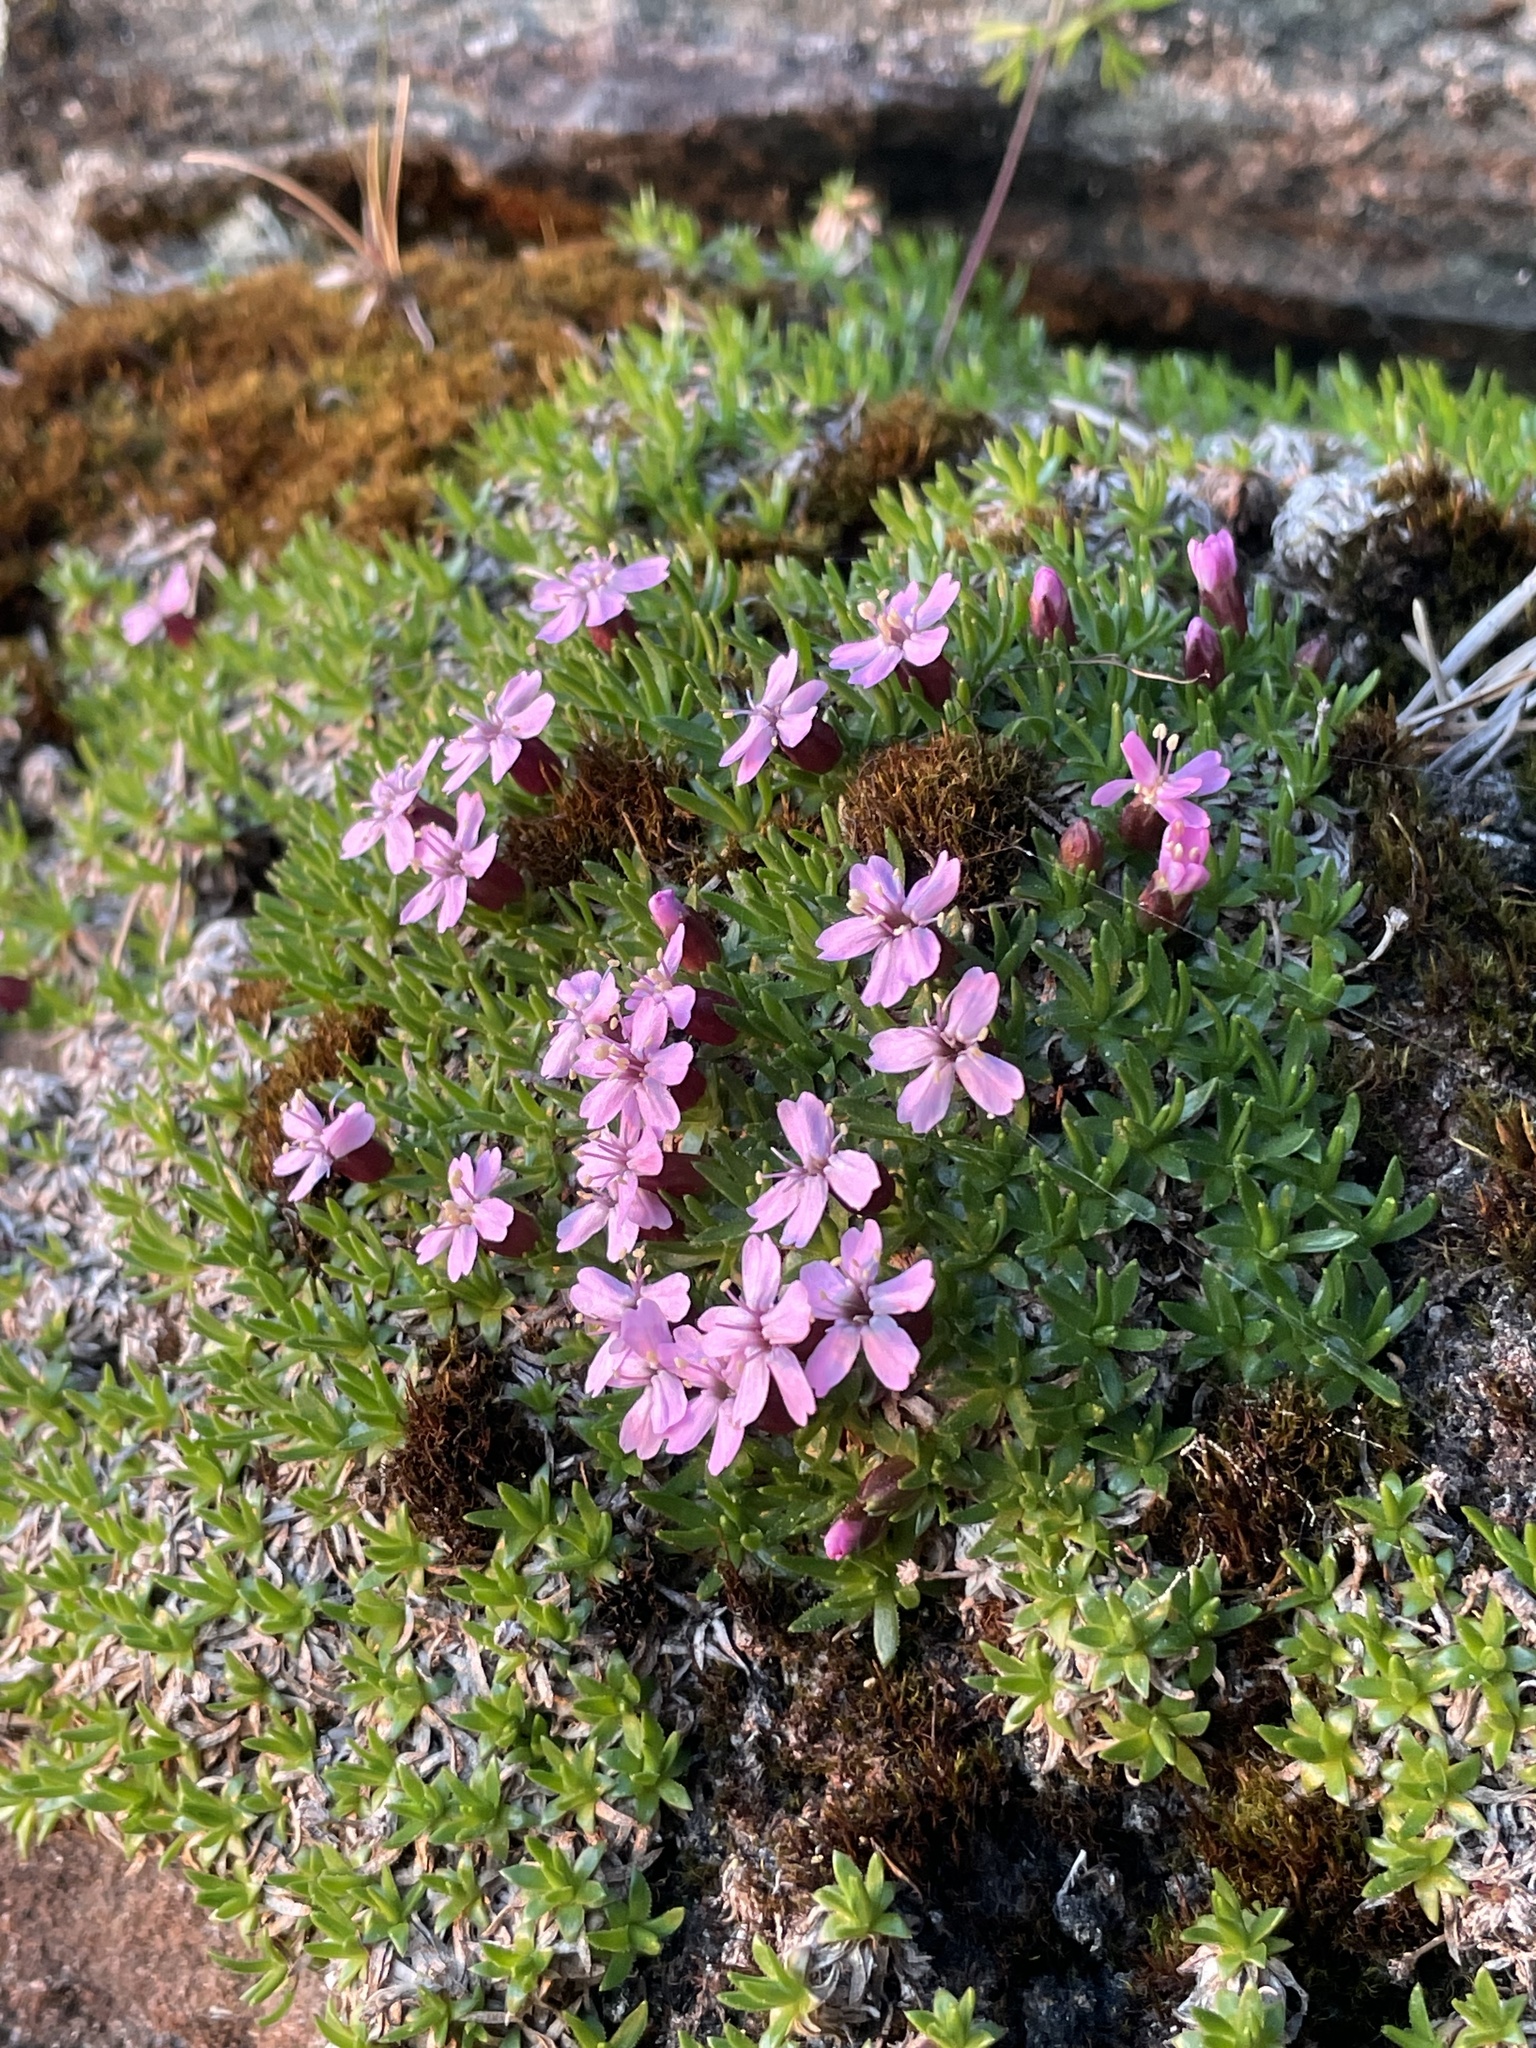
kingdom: Plantae
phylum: Tracheophyta
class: Magnoliopsida
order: Caryophyllales
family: Caryophyllaceae
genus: Silene
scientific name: Silene acaulis
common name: Moss campion
